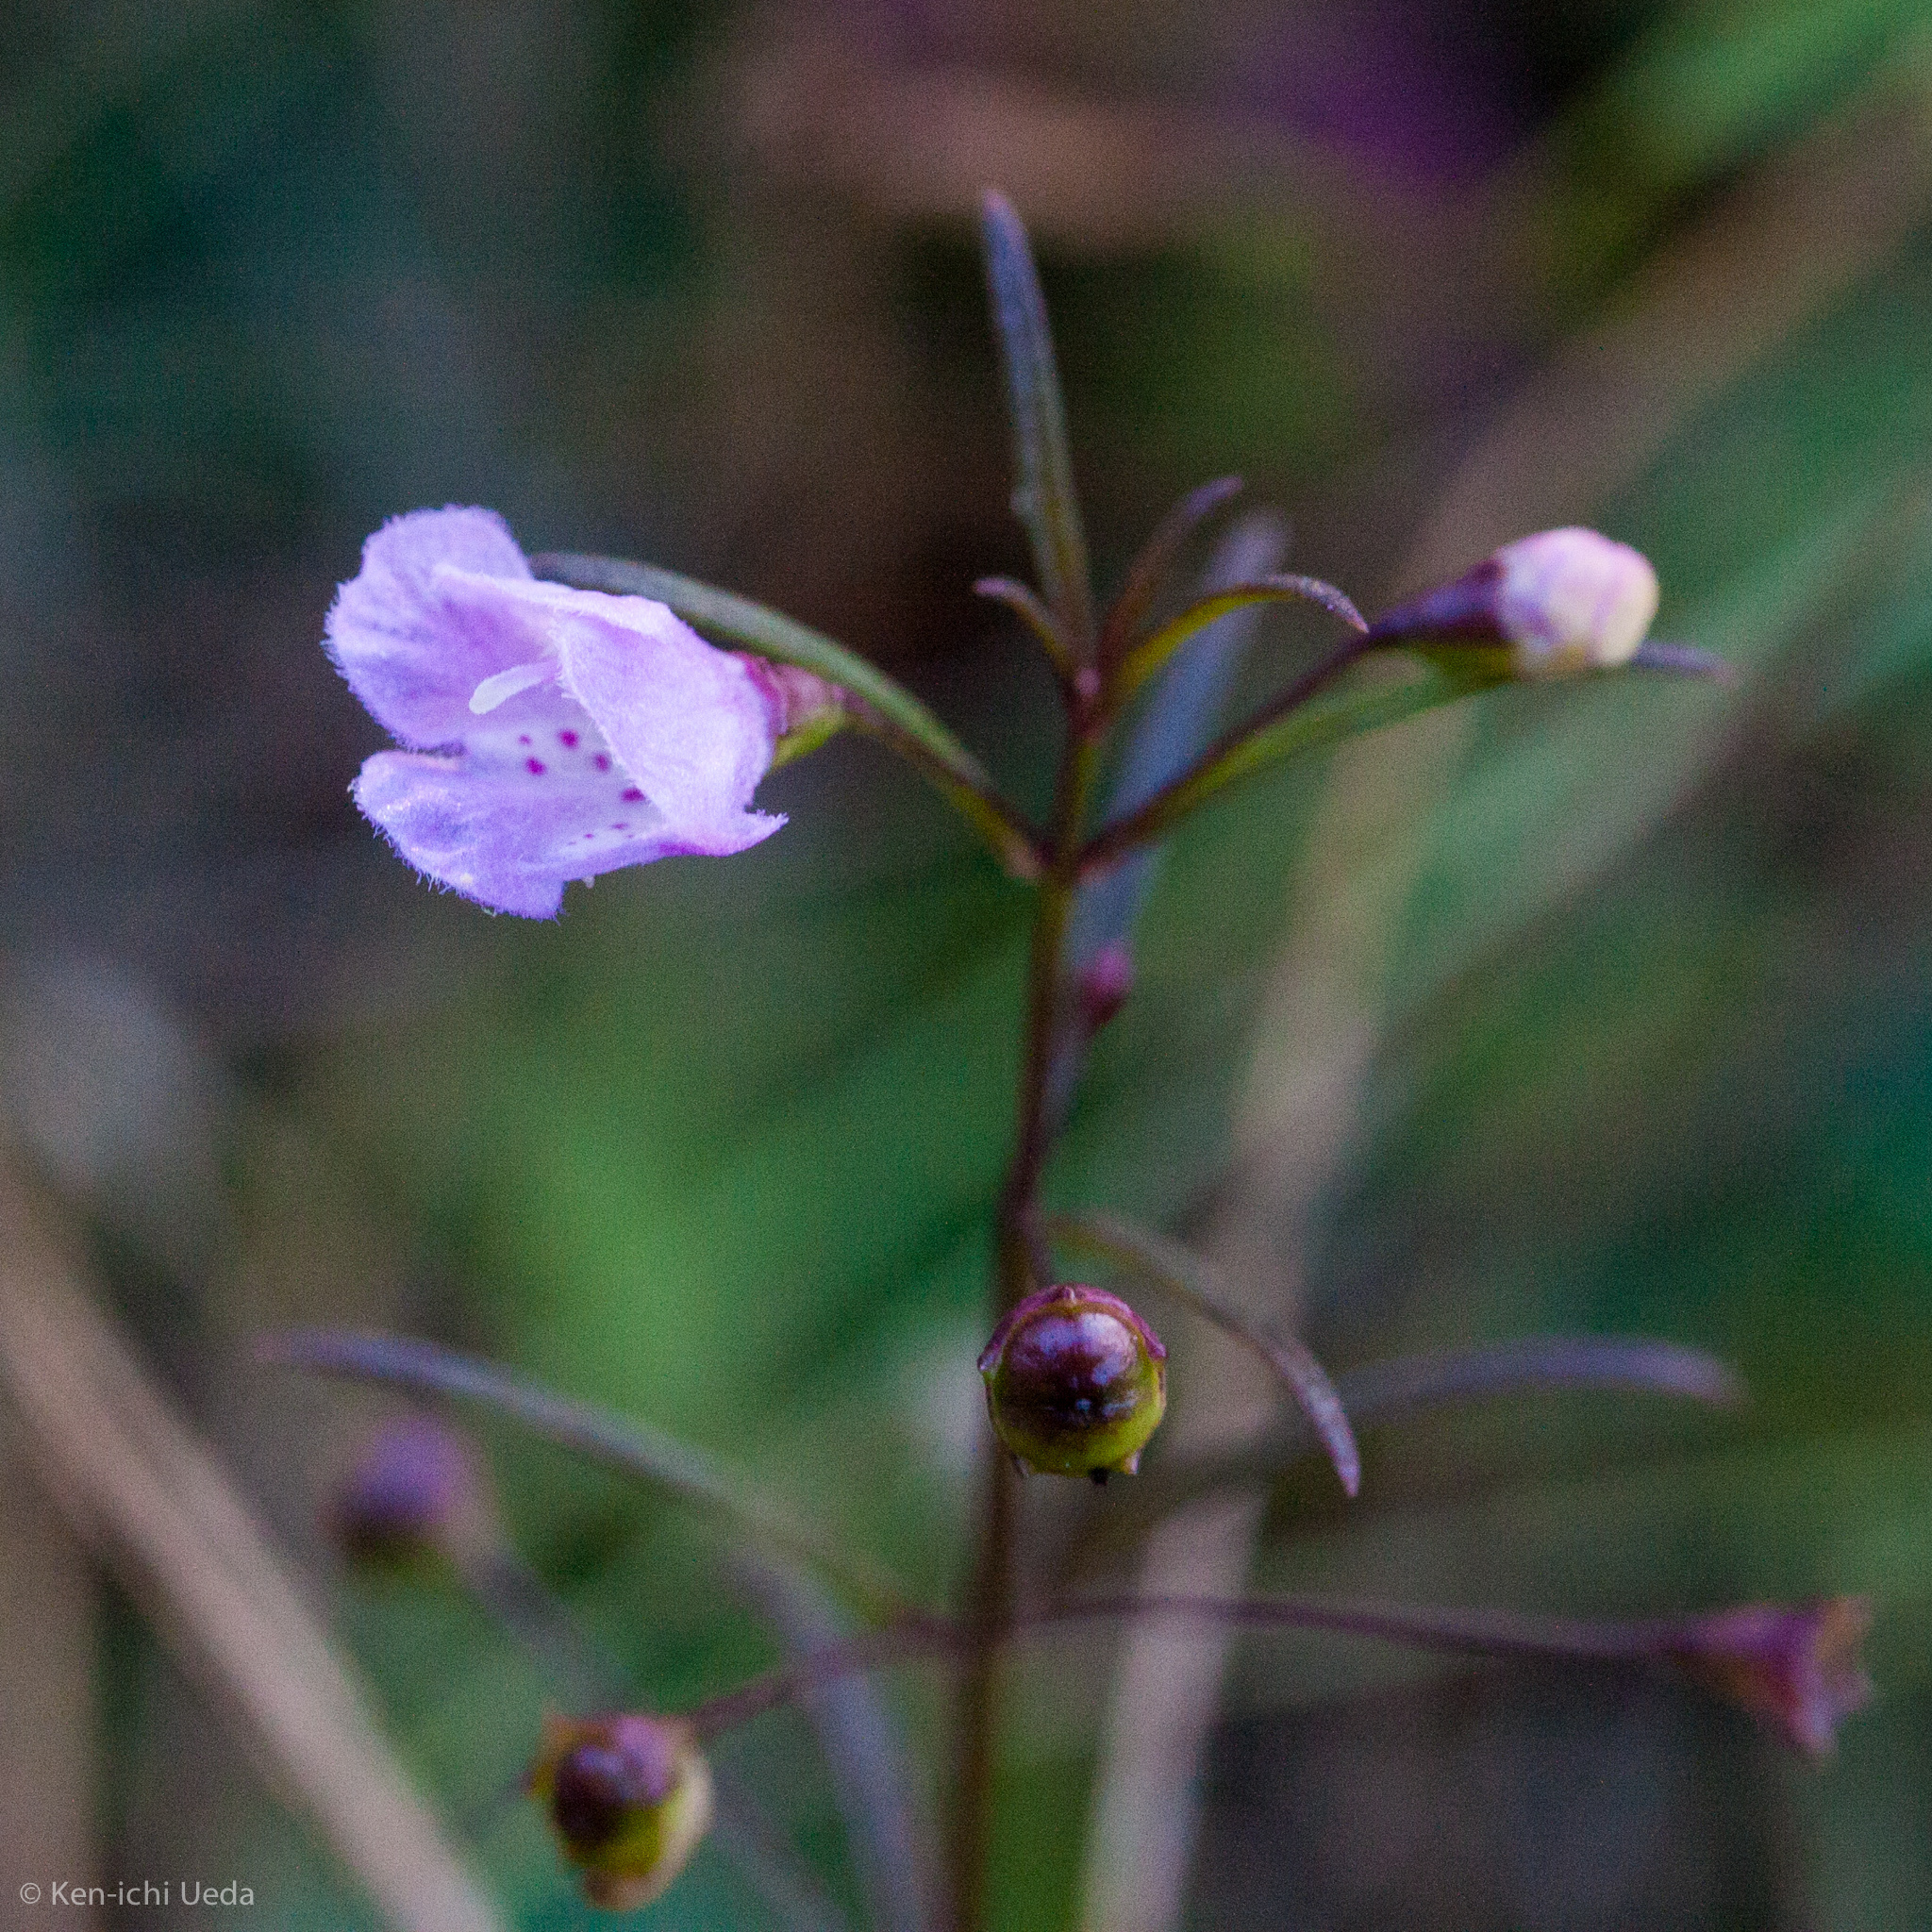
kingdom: Plantae
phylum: Tracheophyta
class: Magnoliopsida
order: Lamiales
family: Orobanchaceae
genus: Agalinis
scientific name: Agalinis tenuifolia
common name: Slender agalinis
